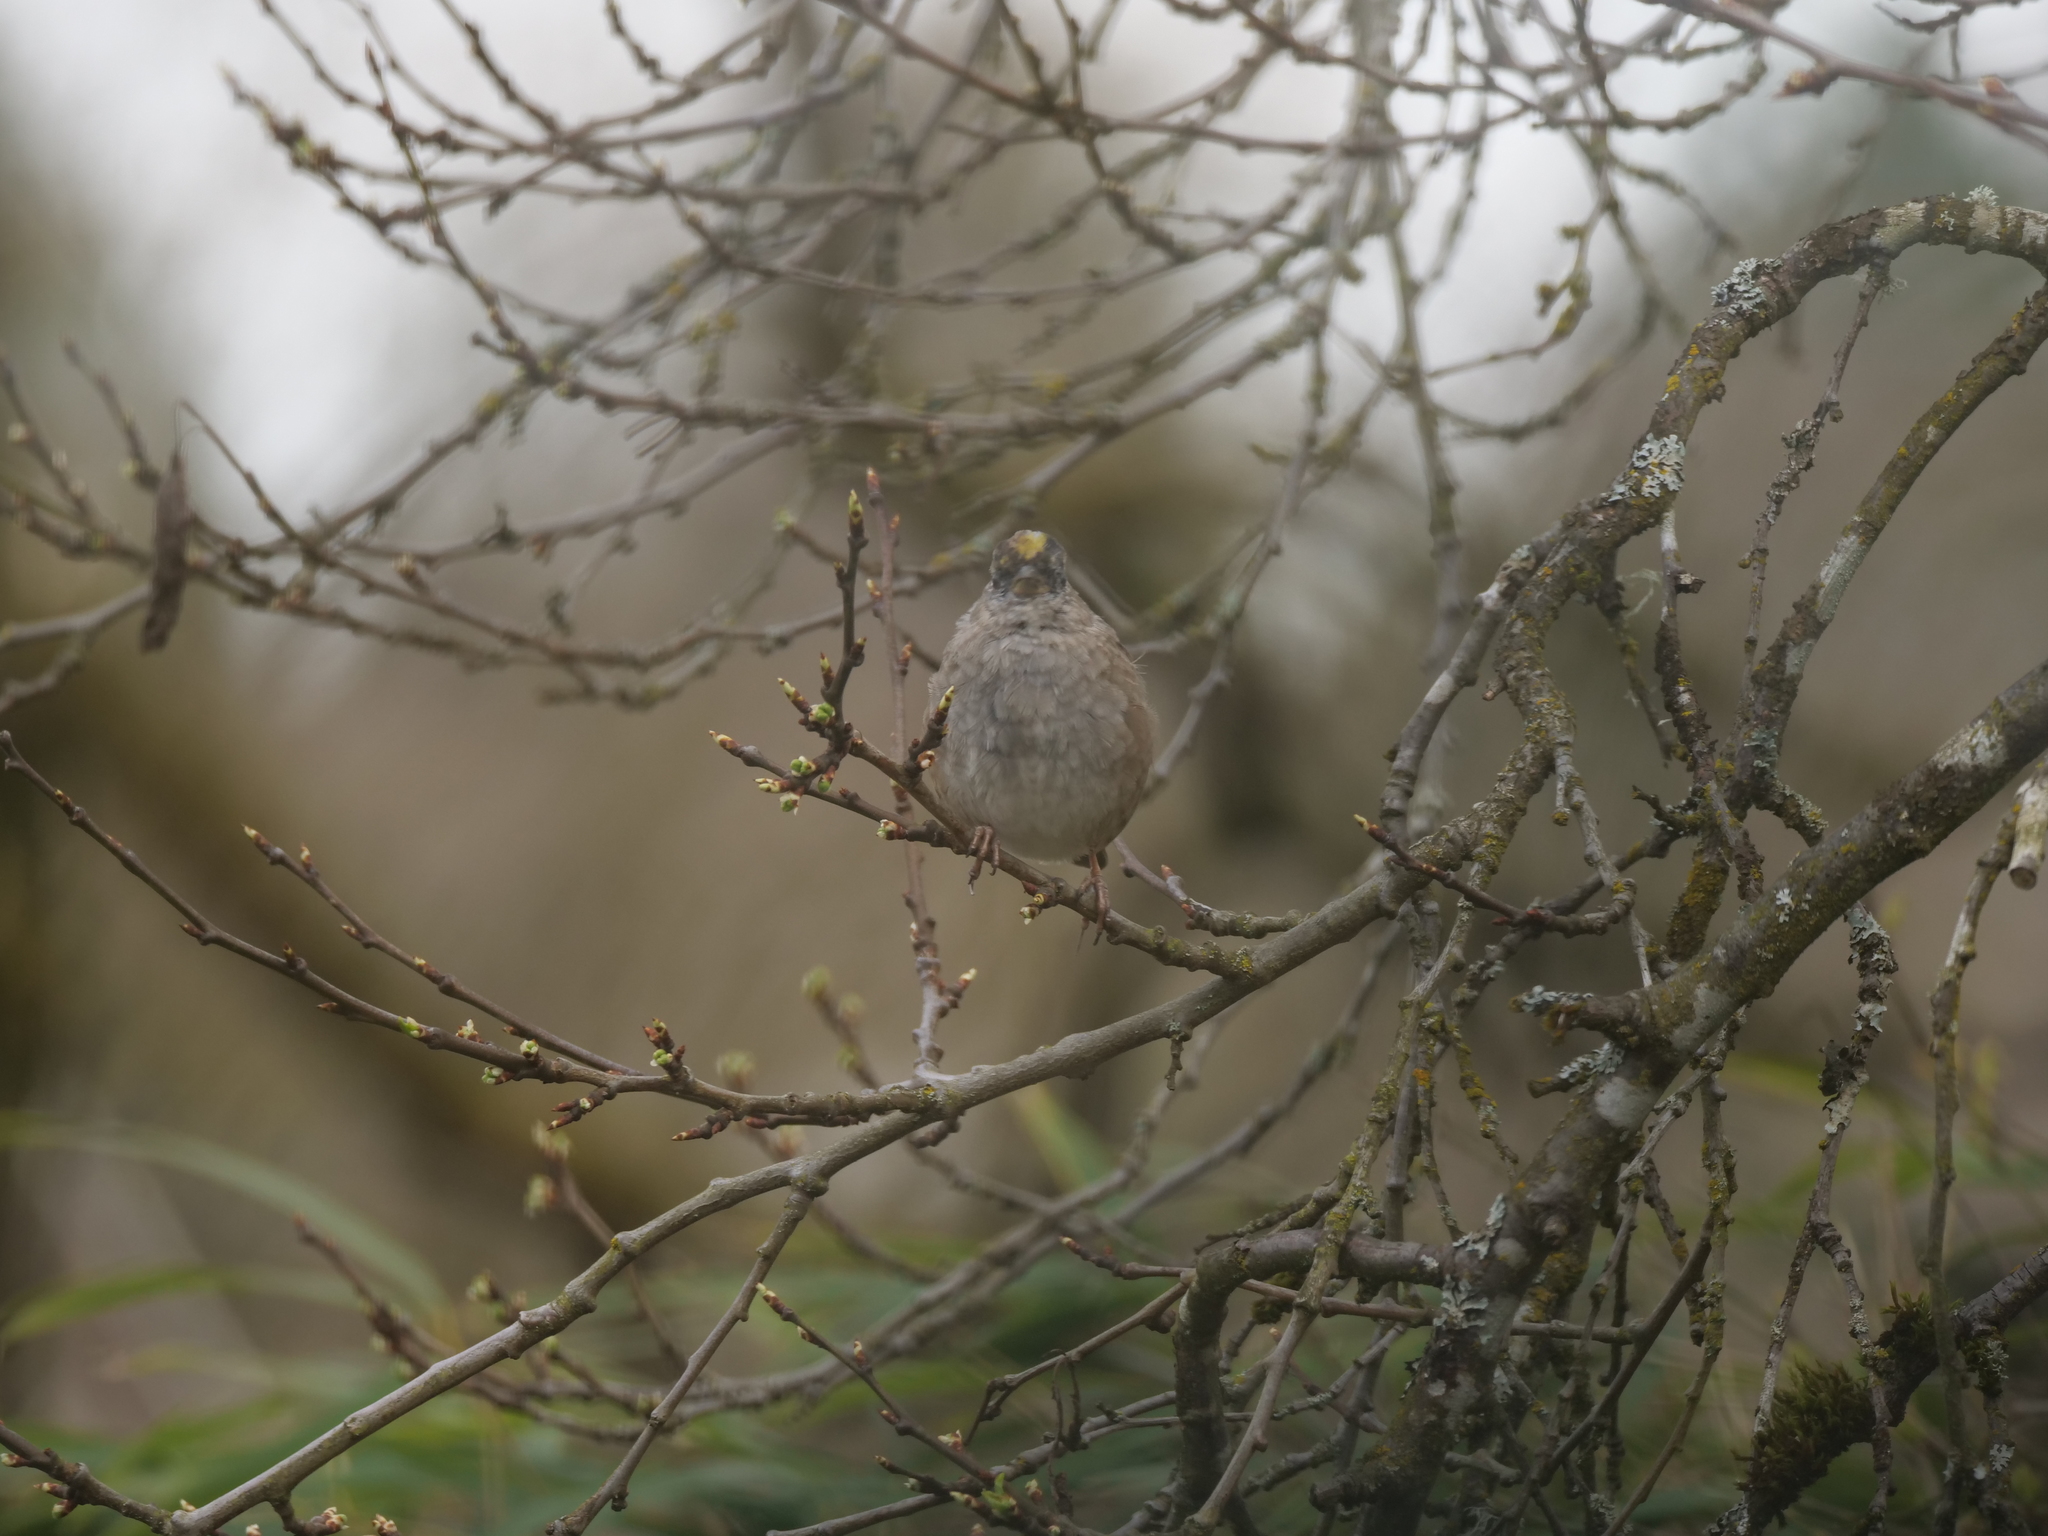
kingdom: Animalia
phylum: Chordata
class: Aves
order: Passeriformes
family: Passerellidae
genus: Zonotrichia
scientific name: Zonotrichia atricapilla
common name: Golden-crowned sparrow
